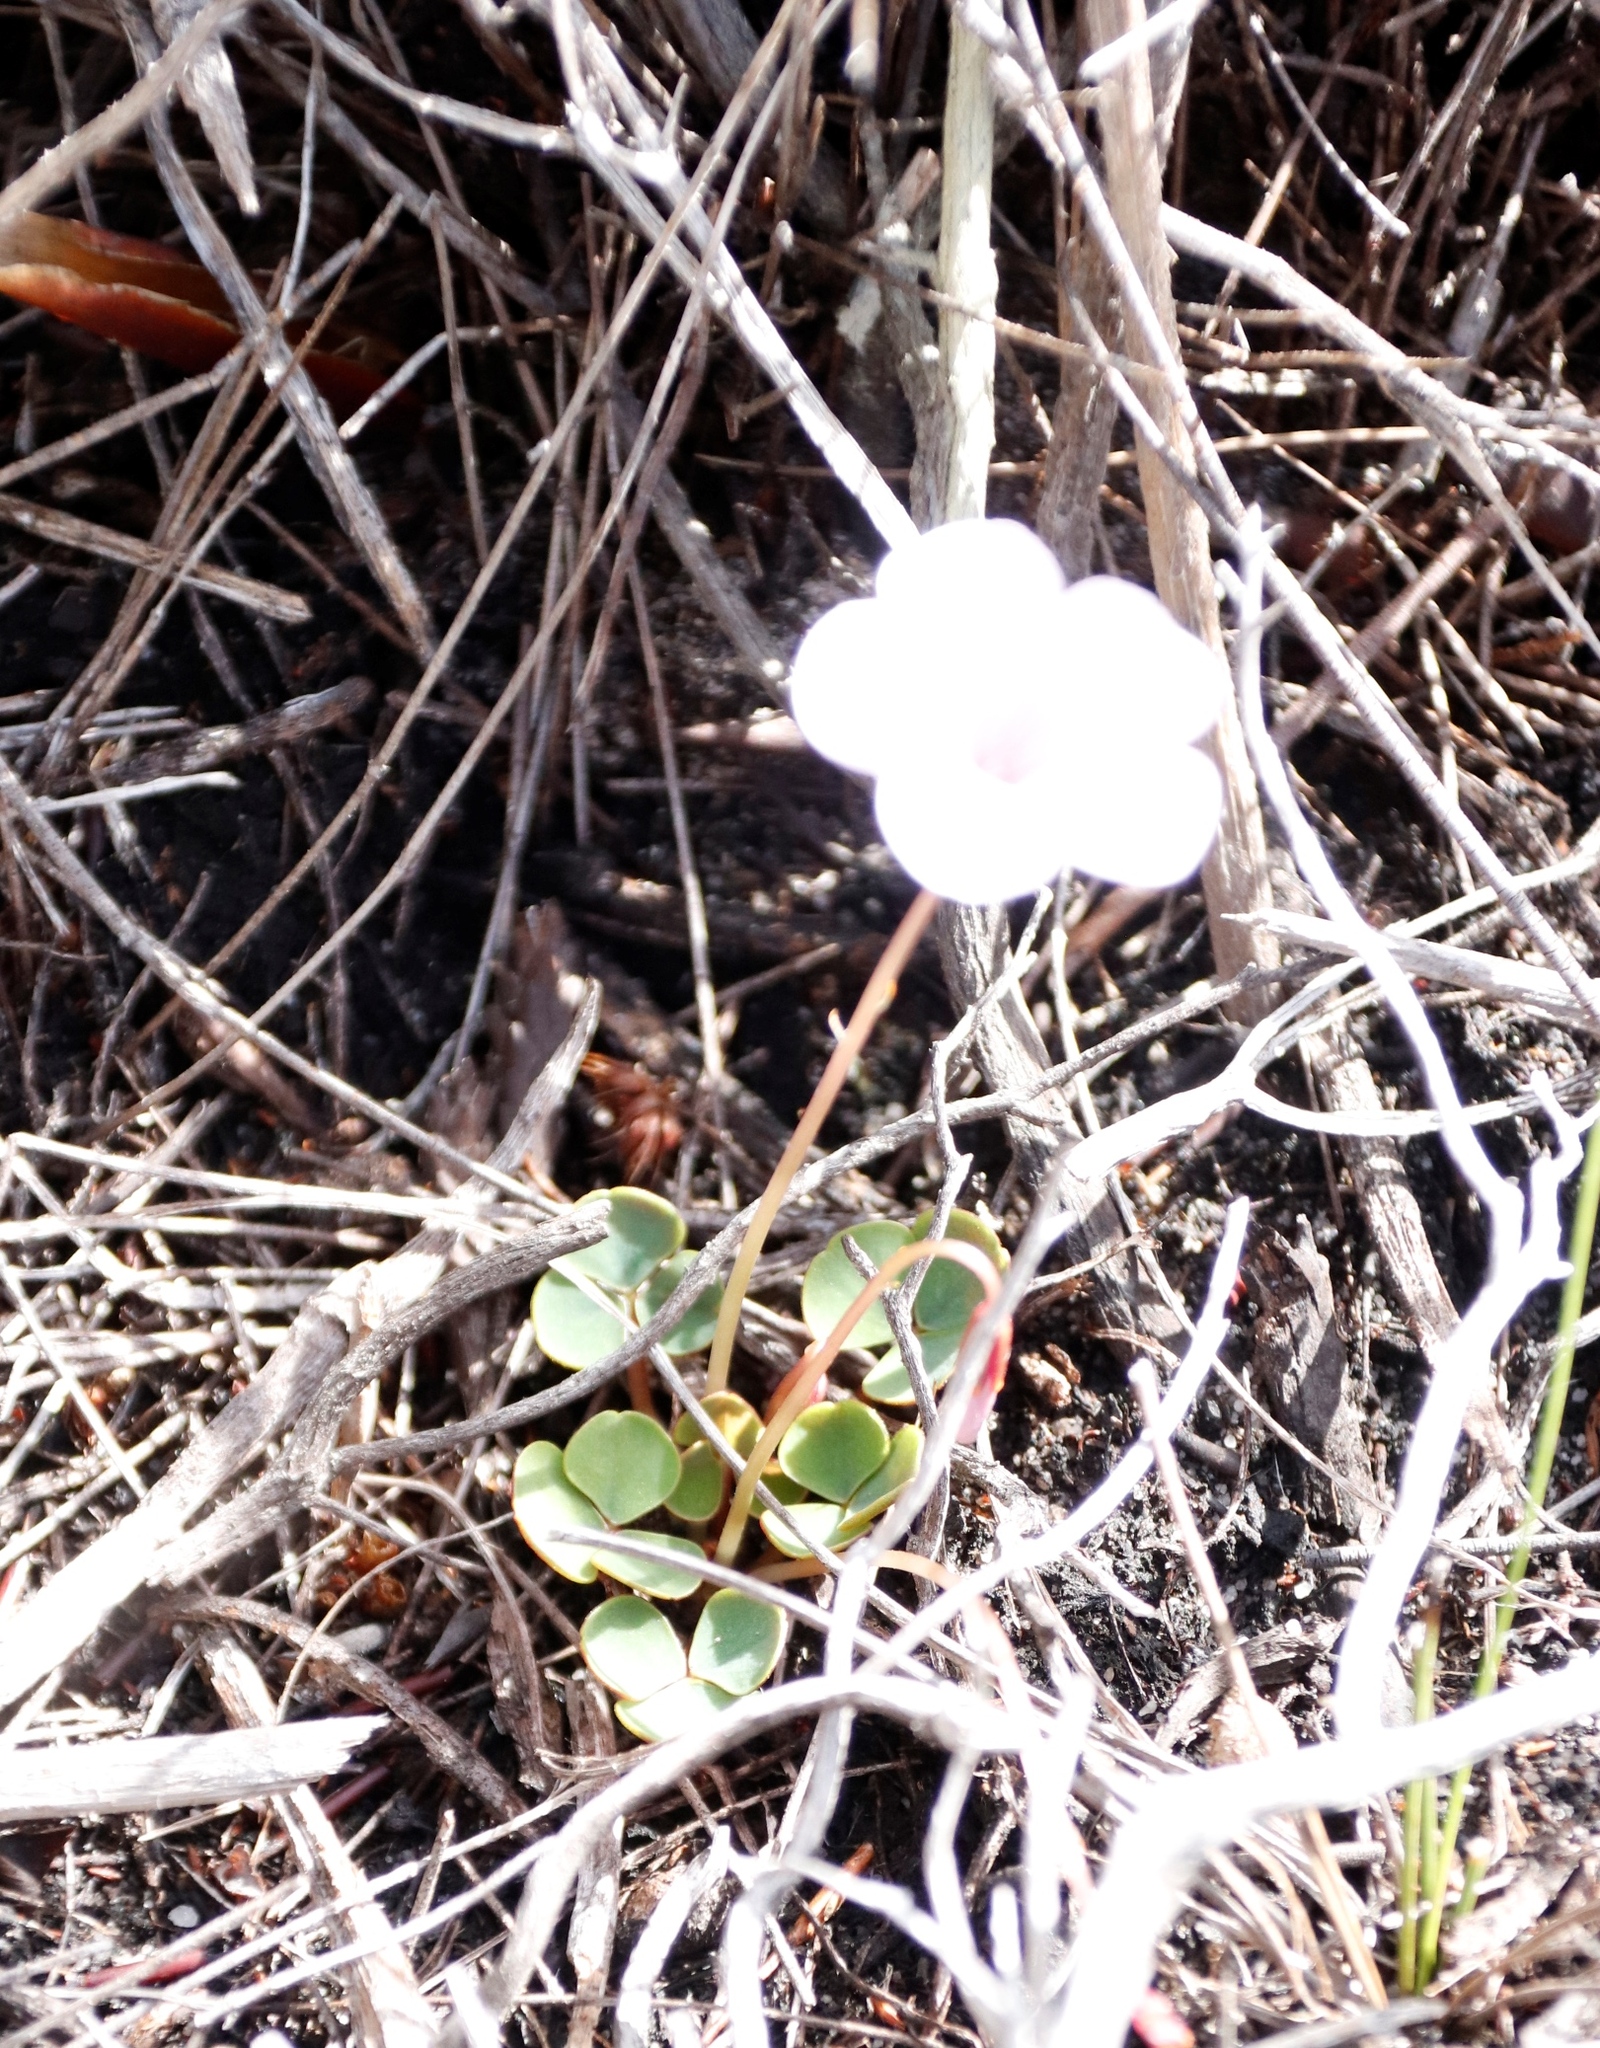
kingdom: Plantae
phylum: Tracheophyta
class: Magnoliopsida
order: Oxalidales
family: Oxalidaceae
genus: Oxalis
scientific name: Oxalis commutata
